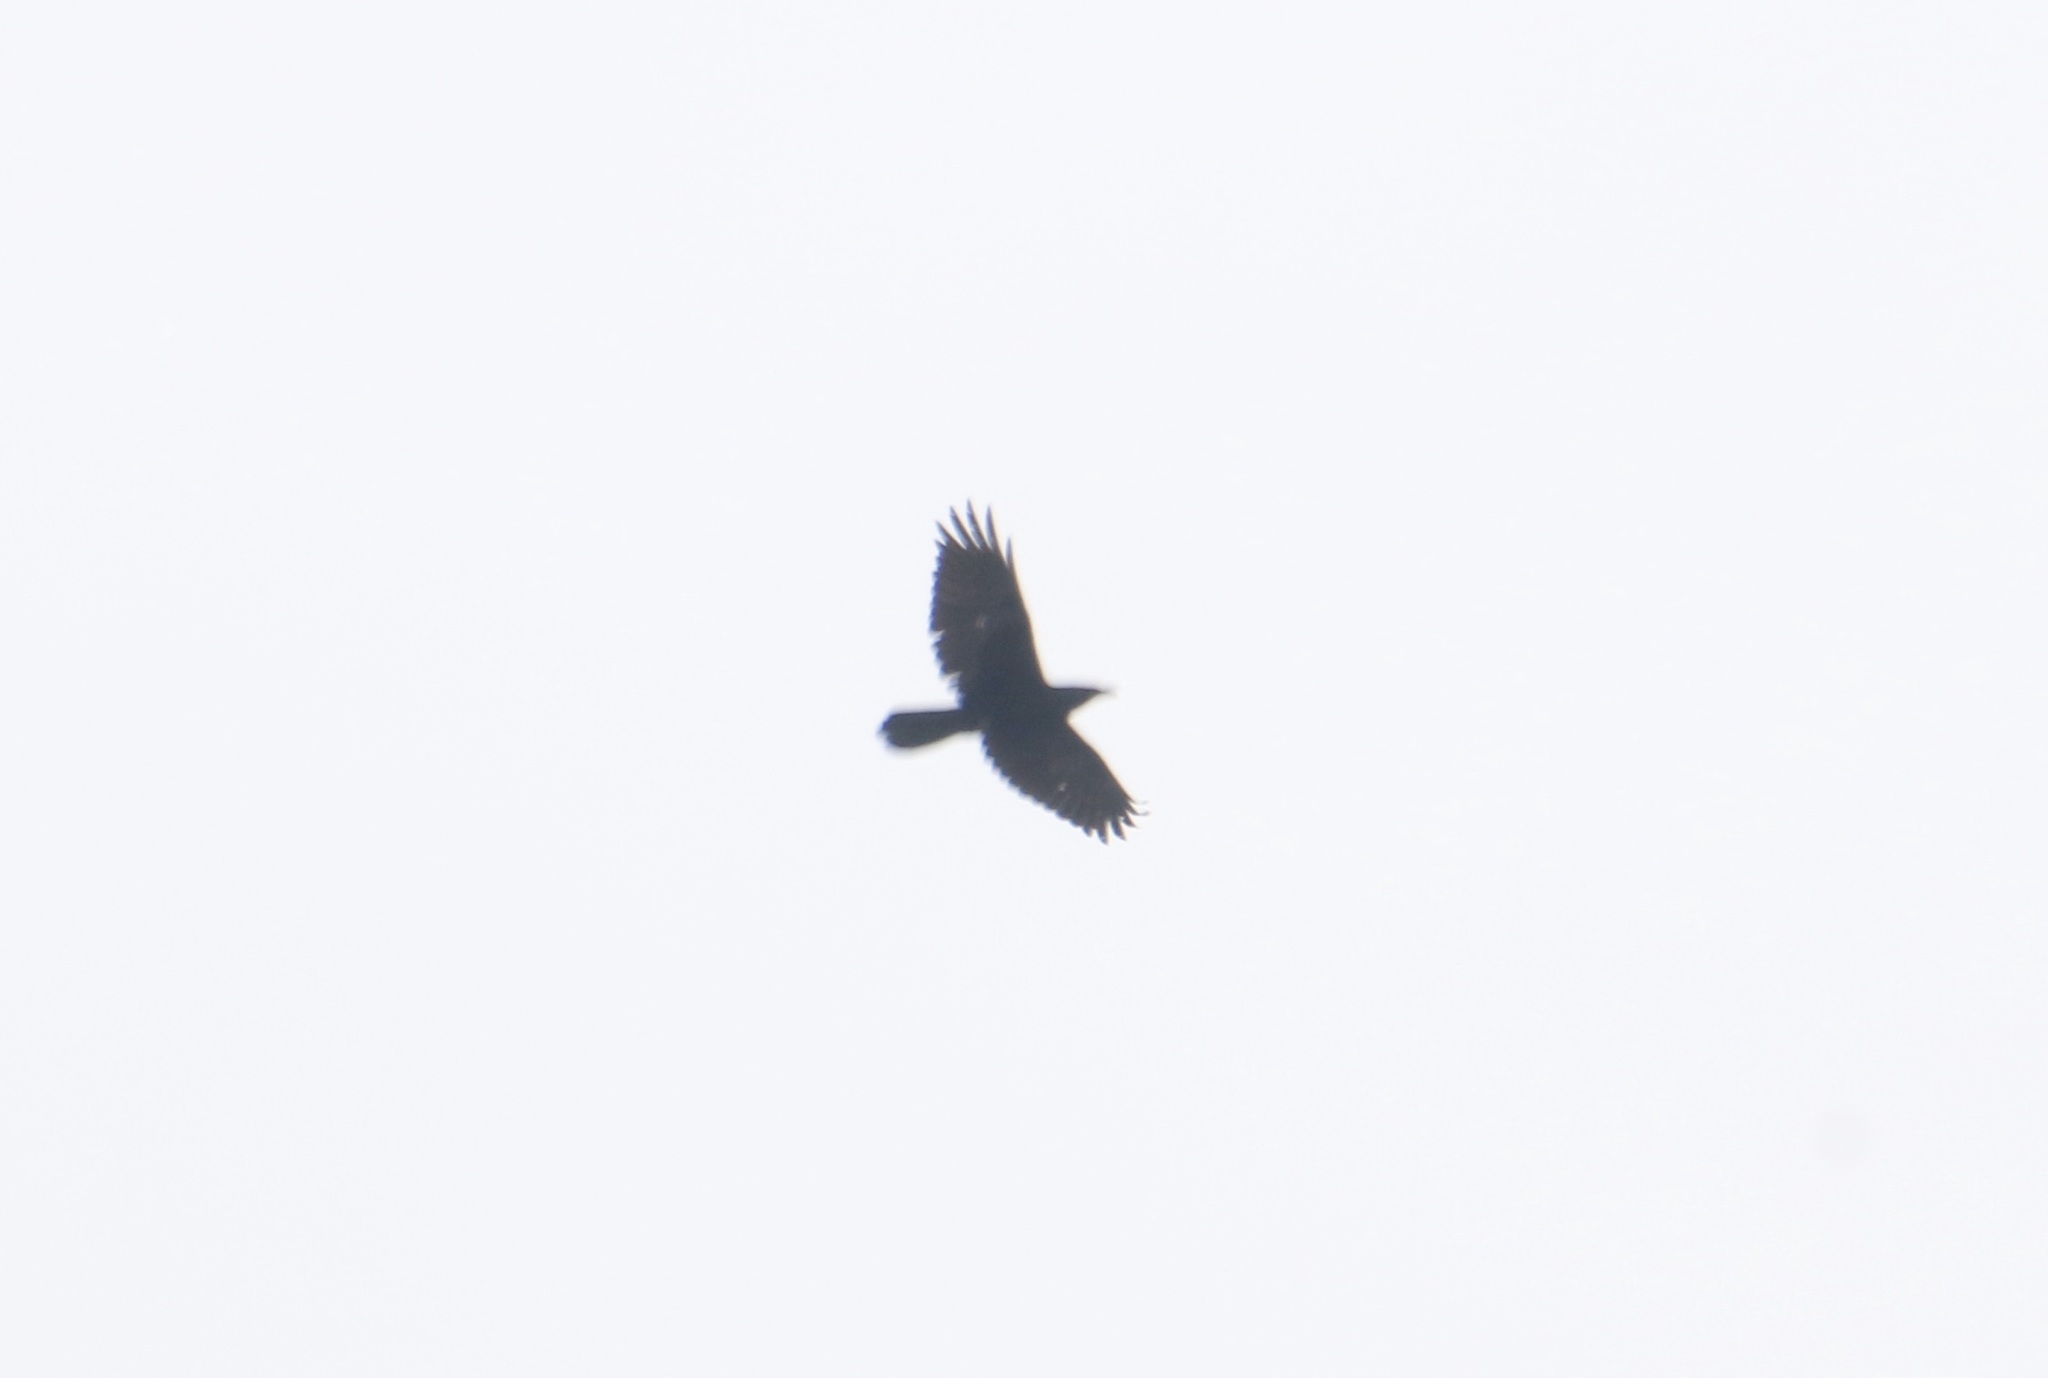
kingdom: Animalia
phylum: Chordata
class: Aves
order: Passeriformes
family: Corvidae
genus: Corvus
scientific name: Corvus corax
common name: Common raven
